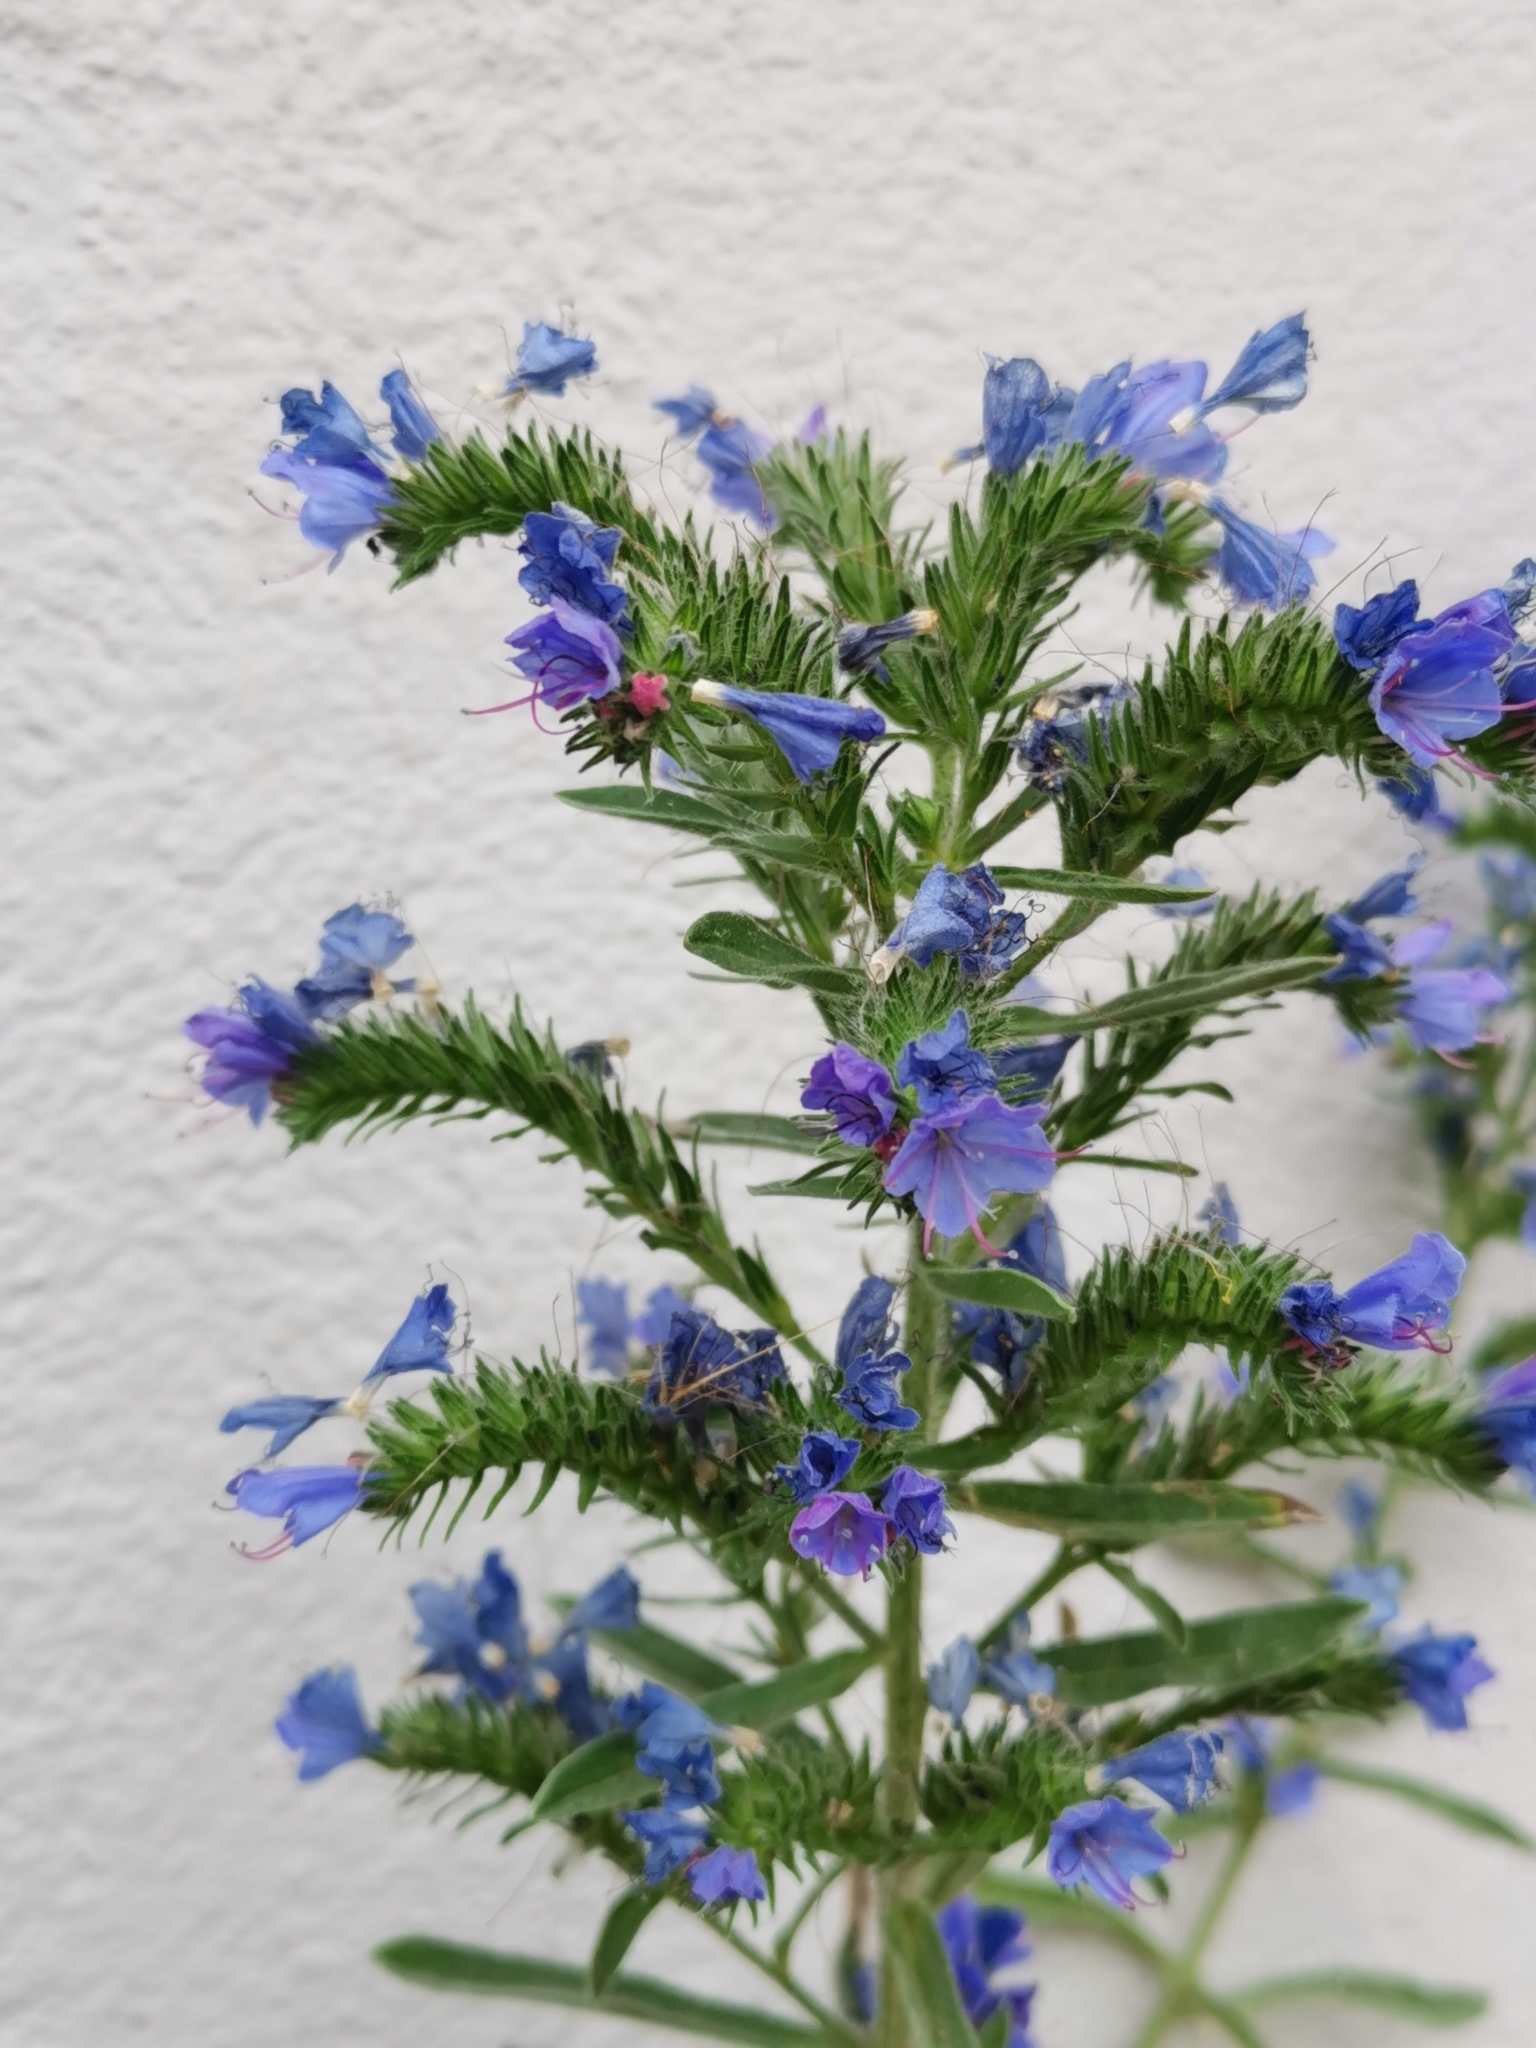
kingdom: Plantae
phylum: Tracheophyta
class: Magnoliopsida
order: Boraginales
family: Boraginaceae
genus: Echium
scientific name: Echium vulgare
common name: Common viper's bugloss
